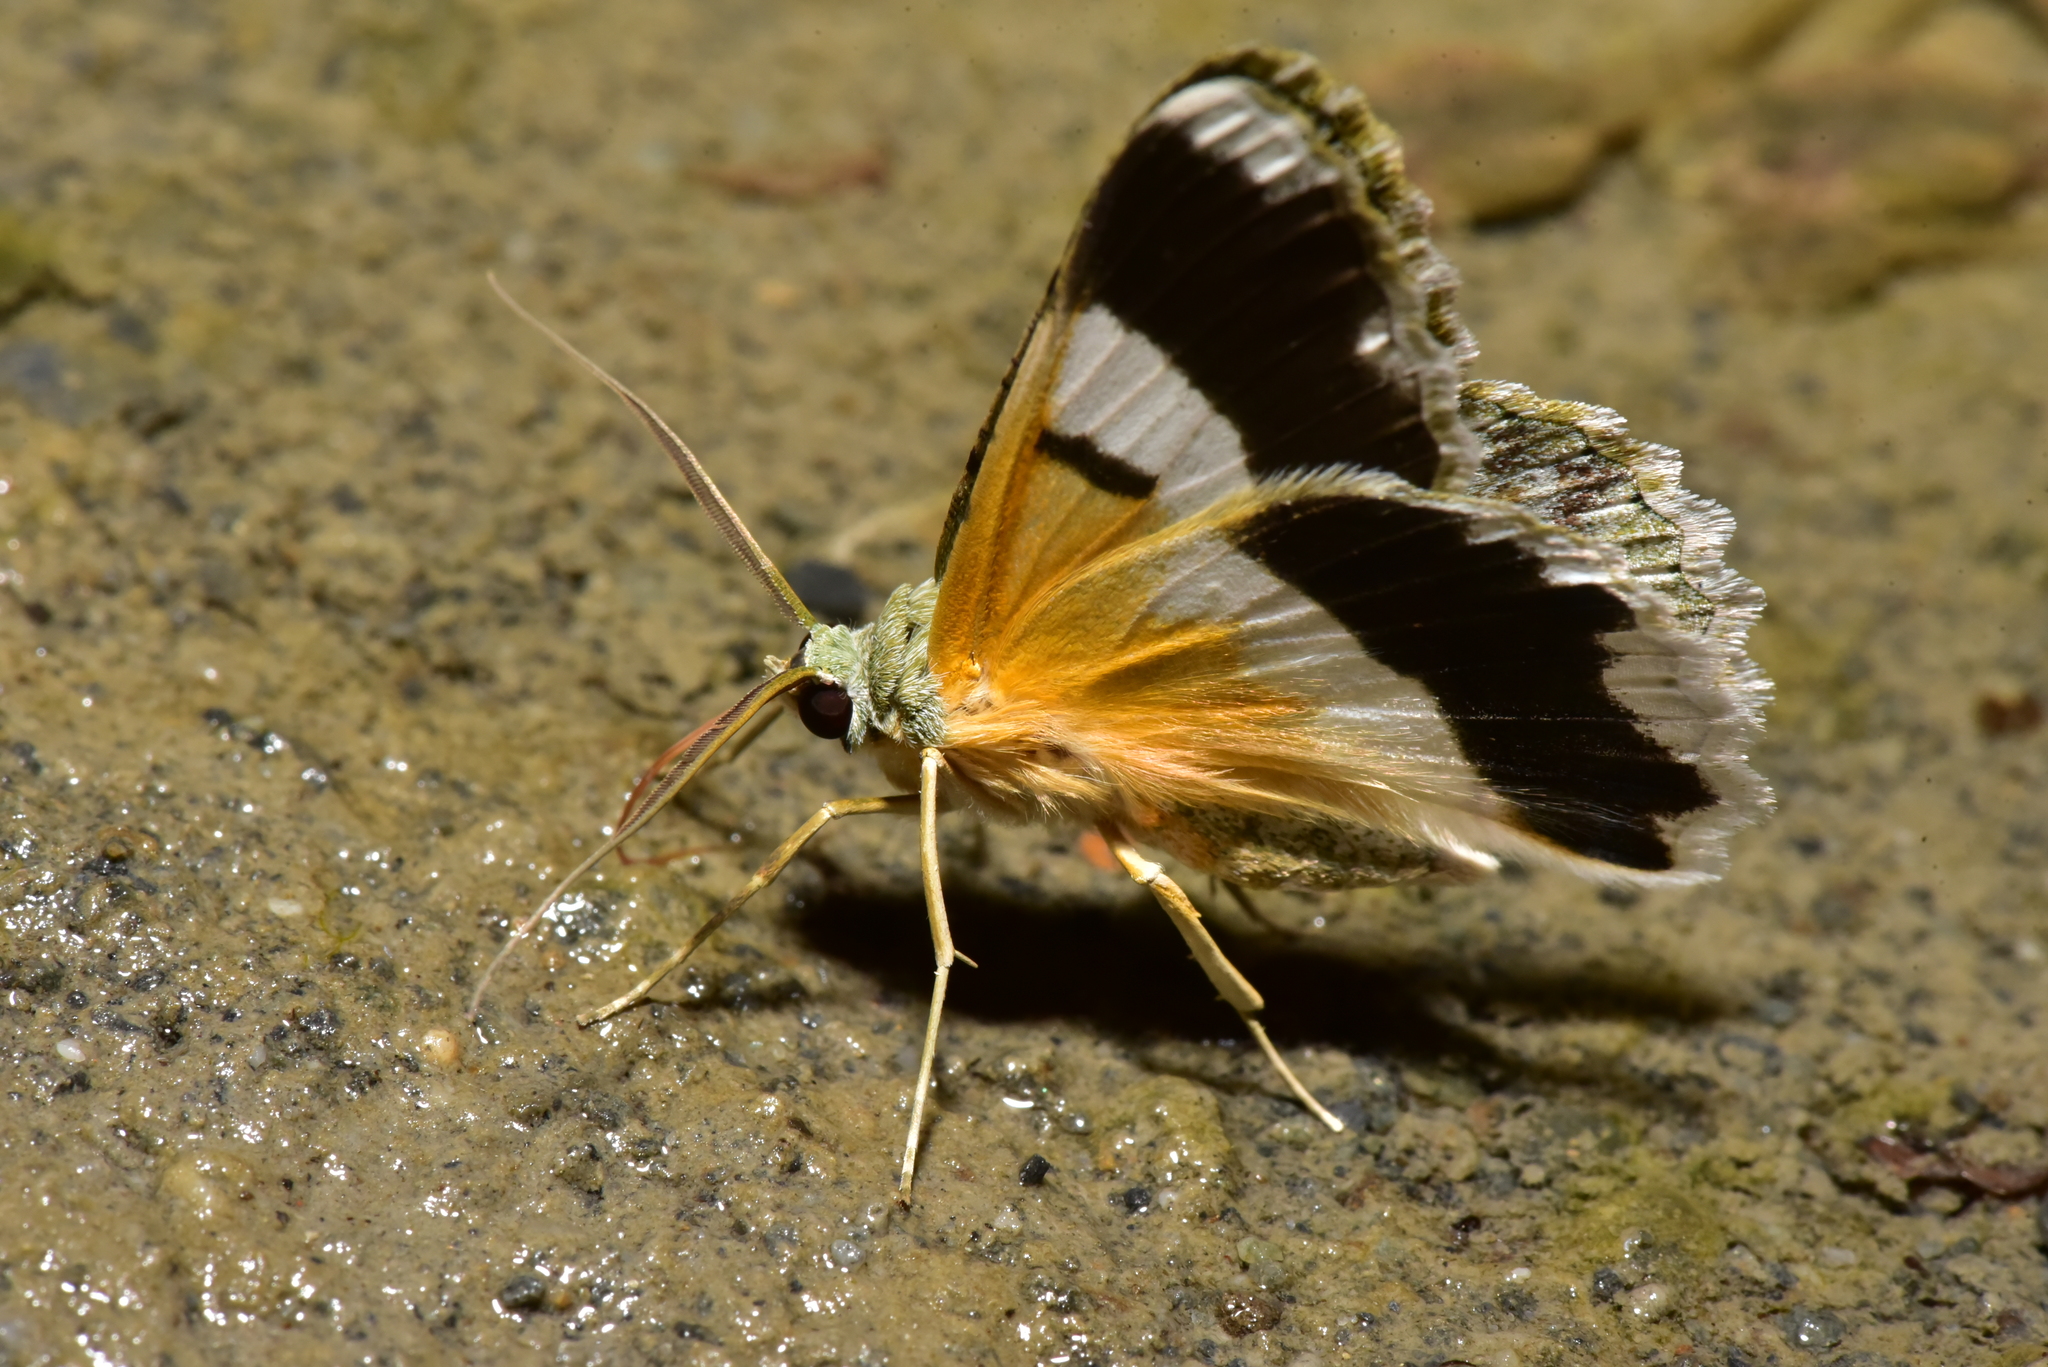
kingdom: Animalia
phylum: Arthropoda
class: Insecta
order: Lepidoptera
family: Geometridae
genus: Pingasa
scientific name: Pingasa ruginaria
